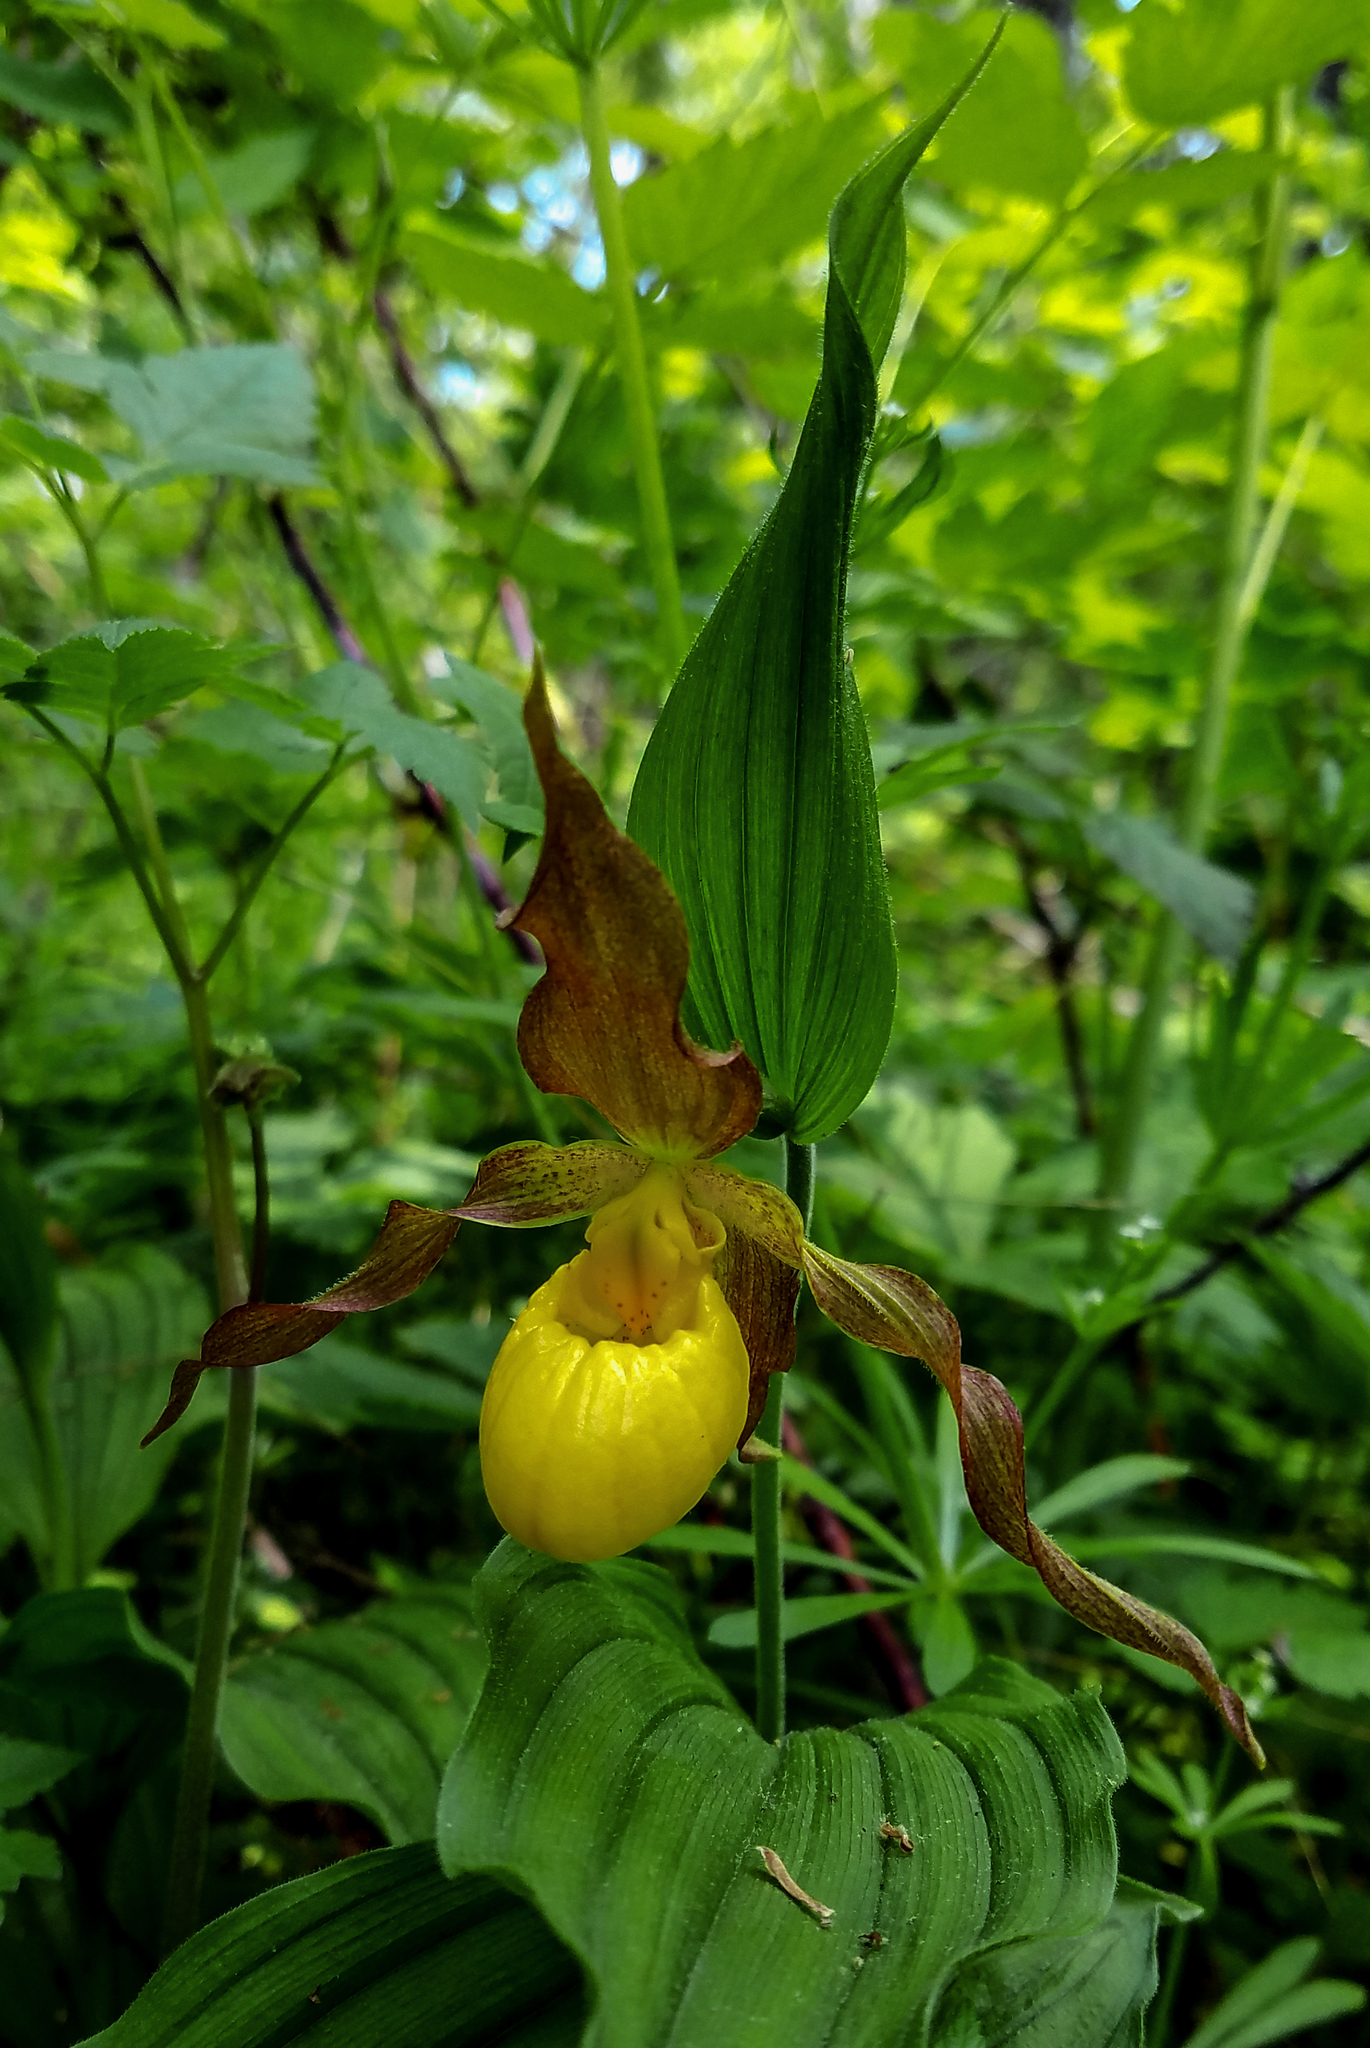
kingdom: Plantae
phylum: Tracheophyta
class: Liliopsida
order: Asparagales
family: Orchidaceae
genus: Cypripedium
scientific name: Cypripedium parviflorum
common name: American yellow lady's-slipper
